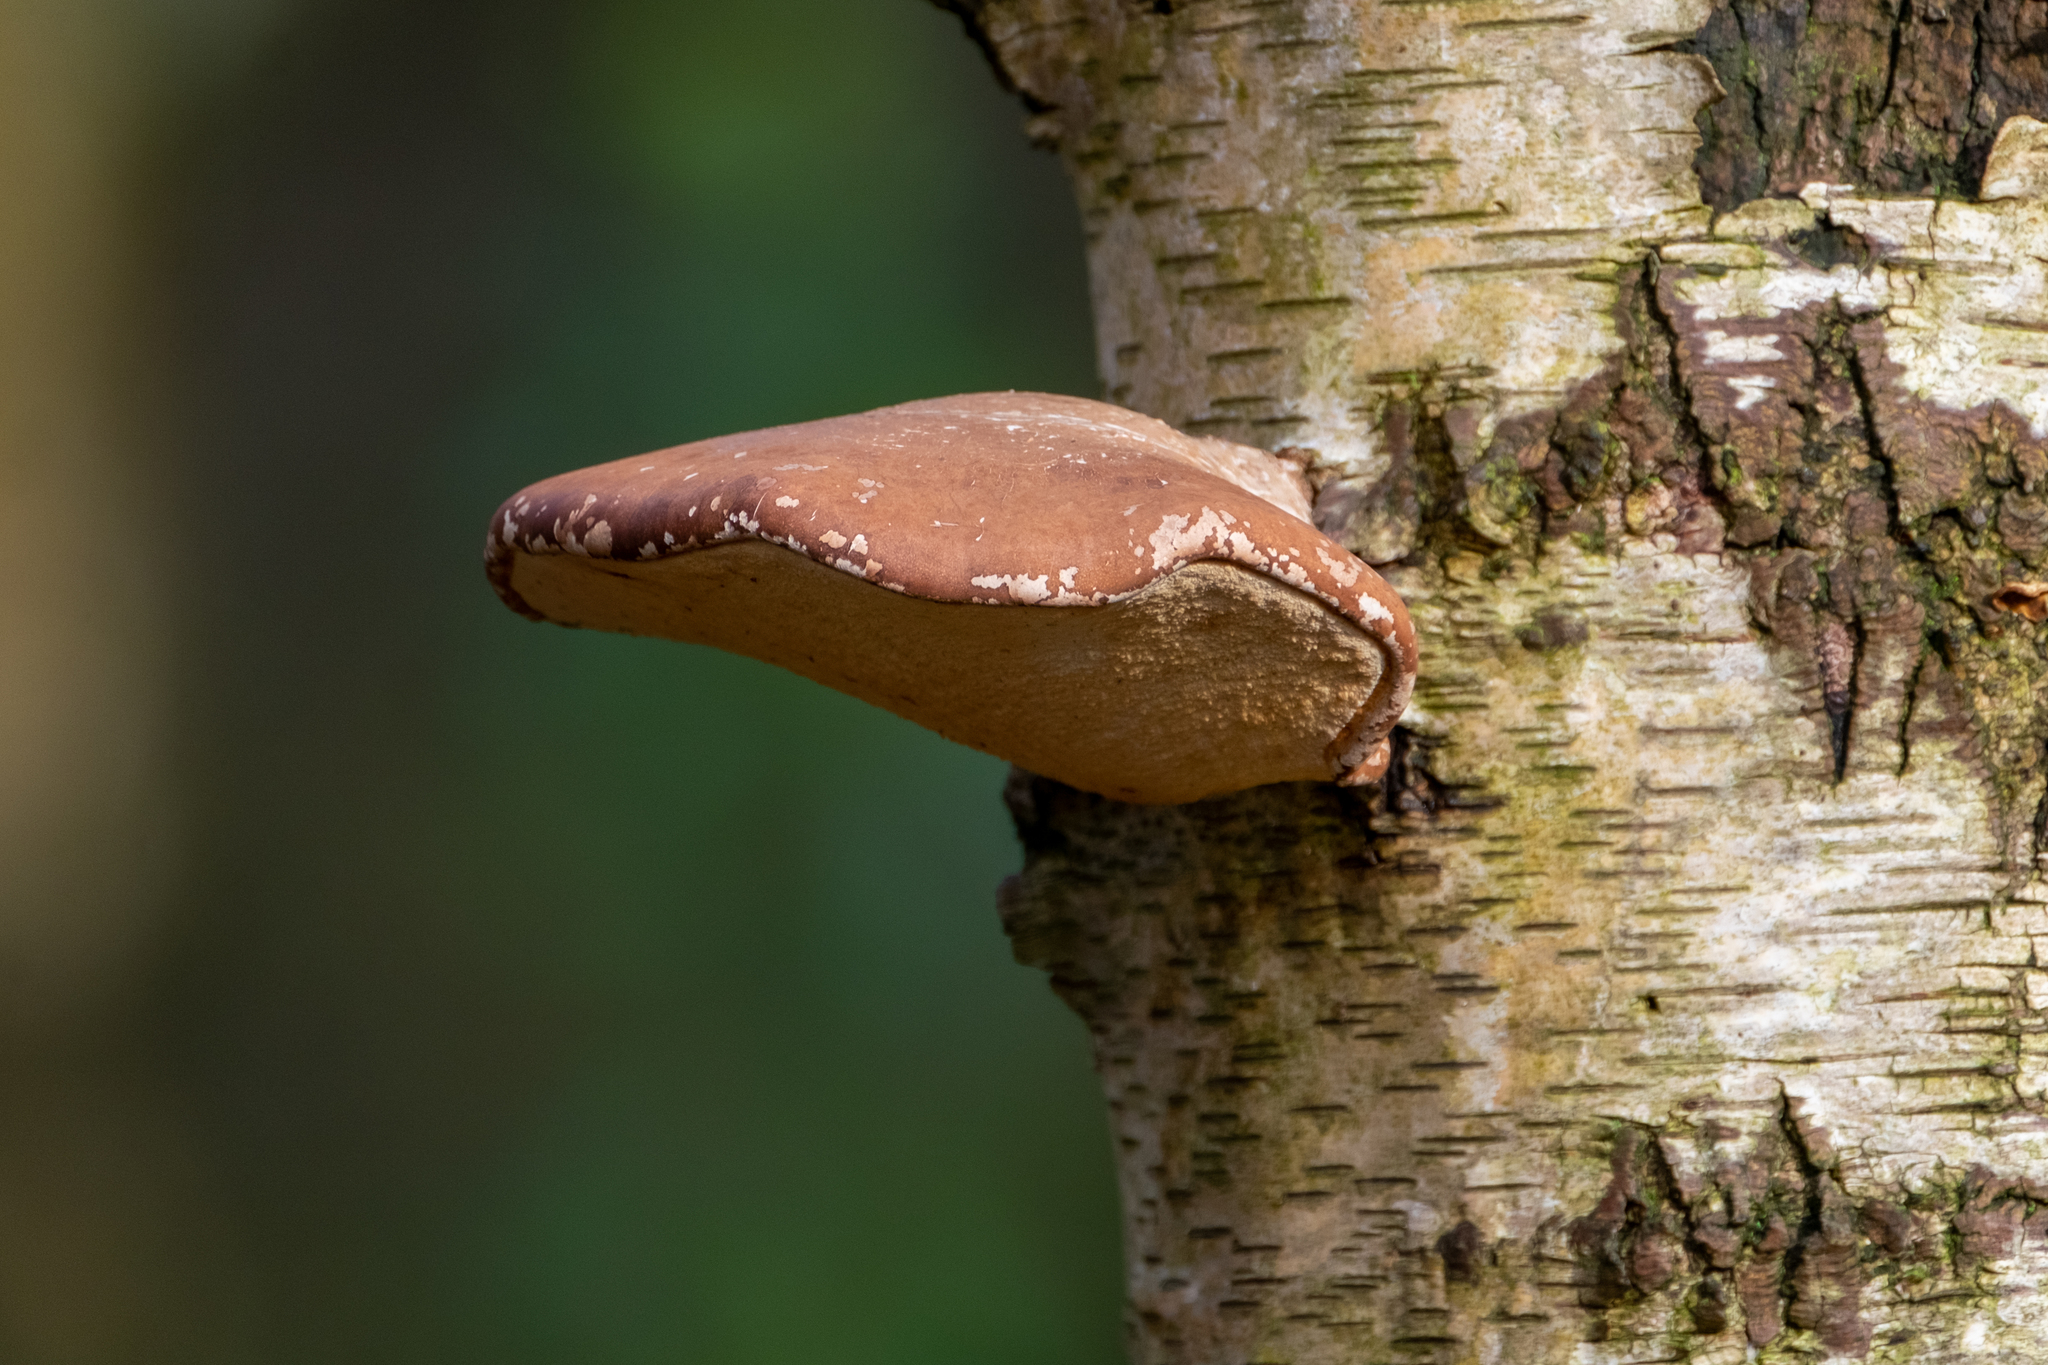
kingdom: Fungi
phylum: Basidiomycota
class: Agaricomycetes
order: Polyporales
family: Fomitopsidaceae
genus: Fomitopsis
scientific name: Fomitopsis betulina
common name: Birch polypore
